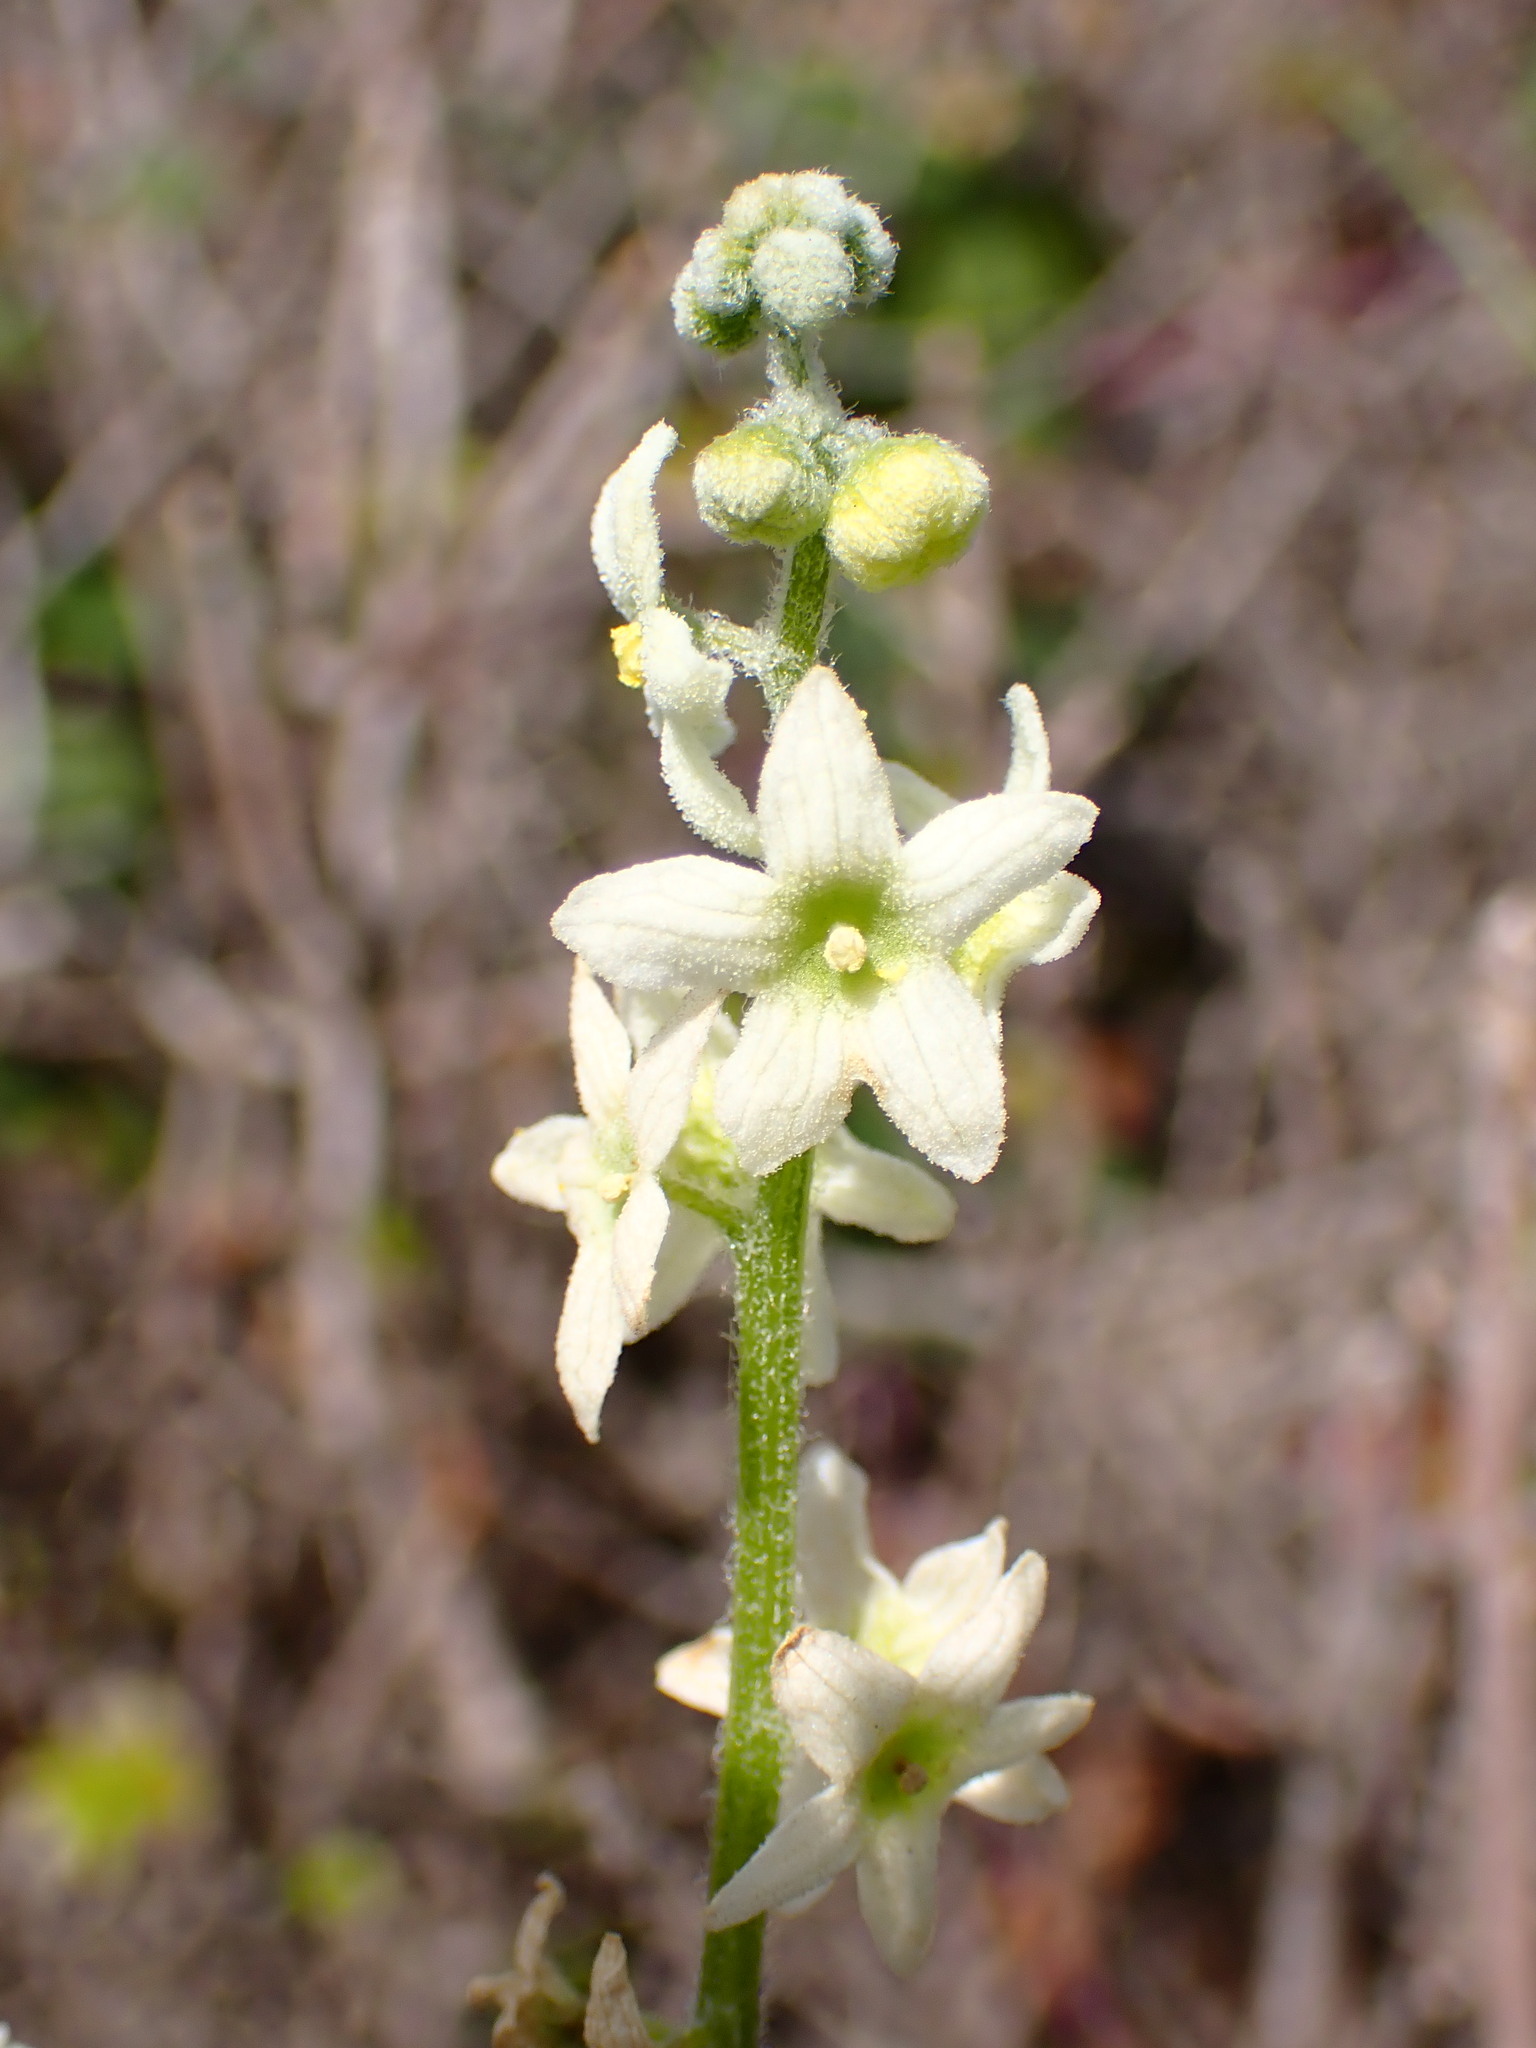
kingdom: Plantae
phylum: Tracheophyta
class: Magnoliopsida
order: Cucurbitales
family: Cucurbitaceae
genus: Marah
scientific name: Marah fabacea
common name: California manroot
